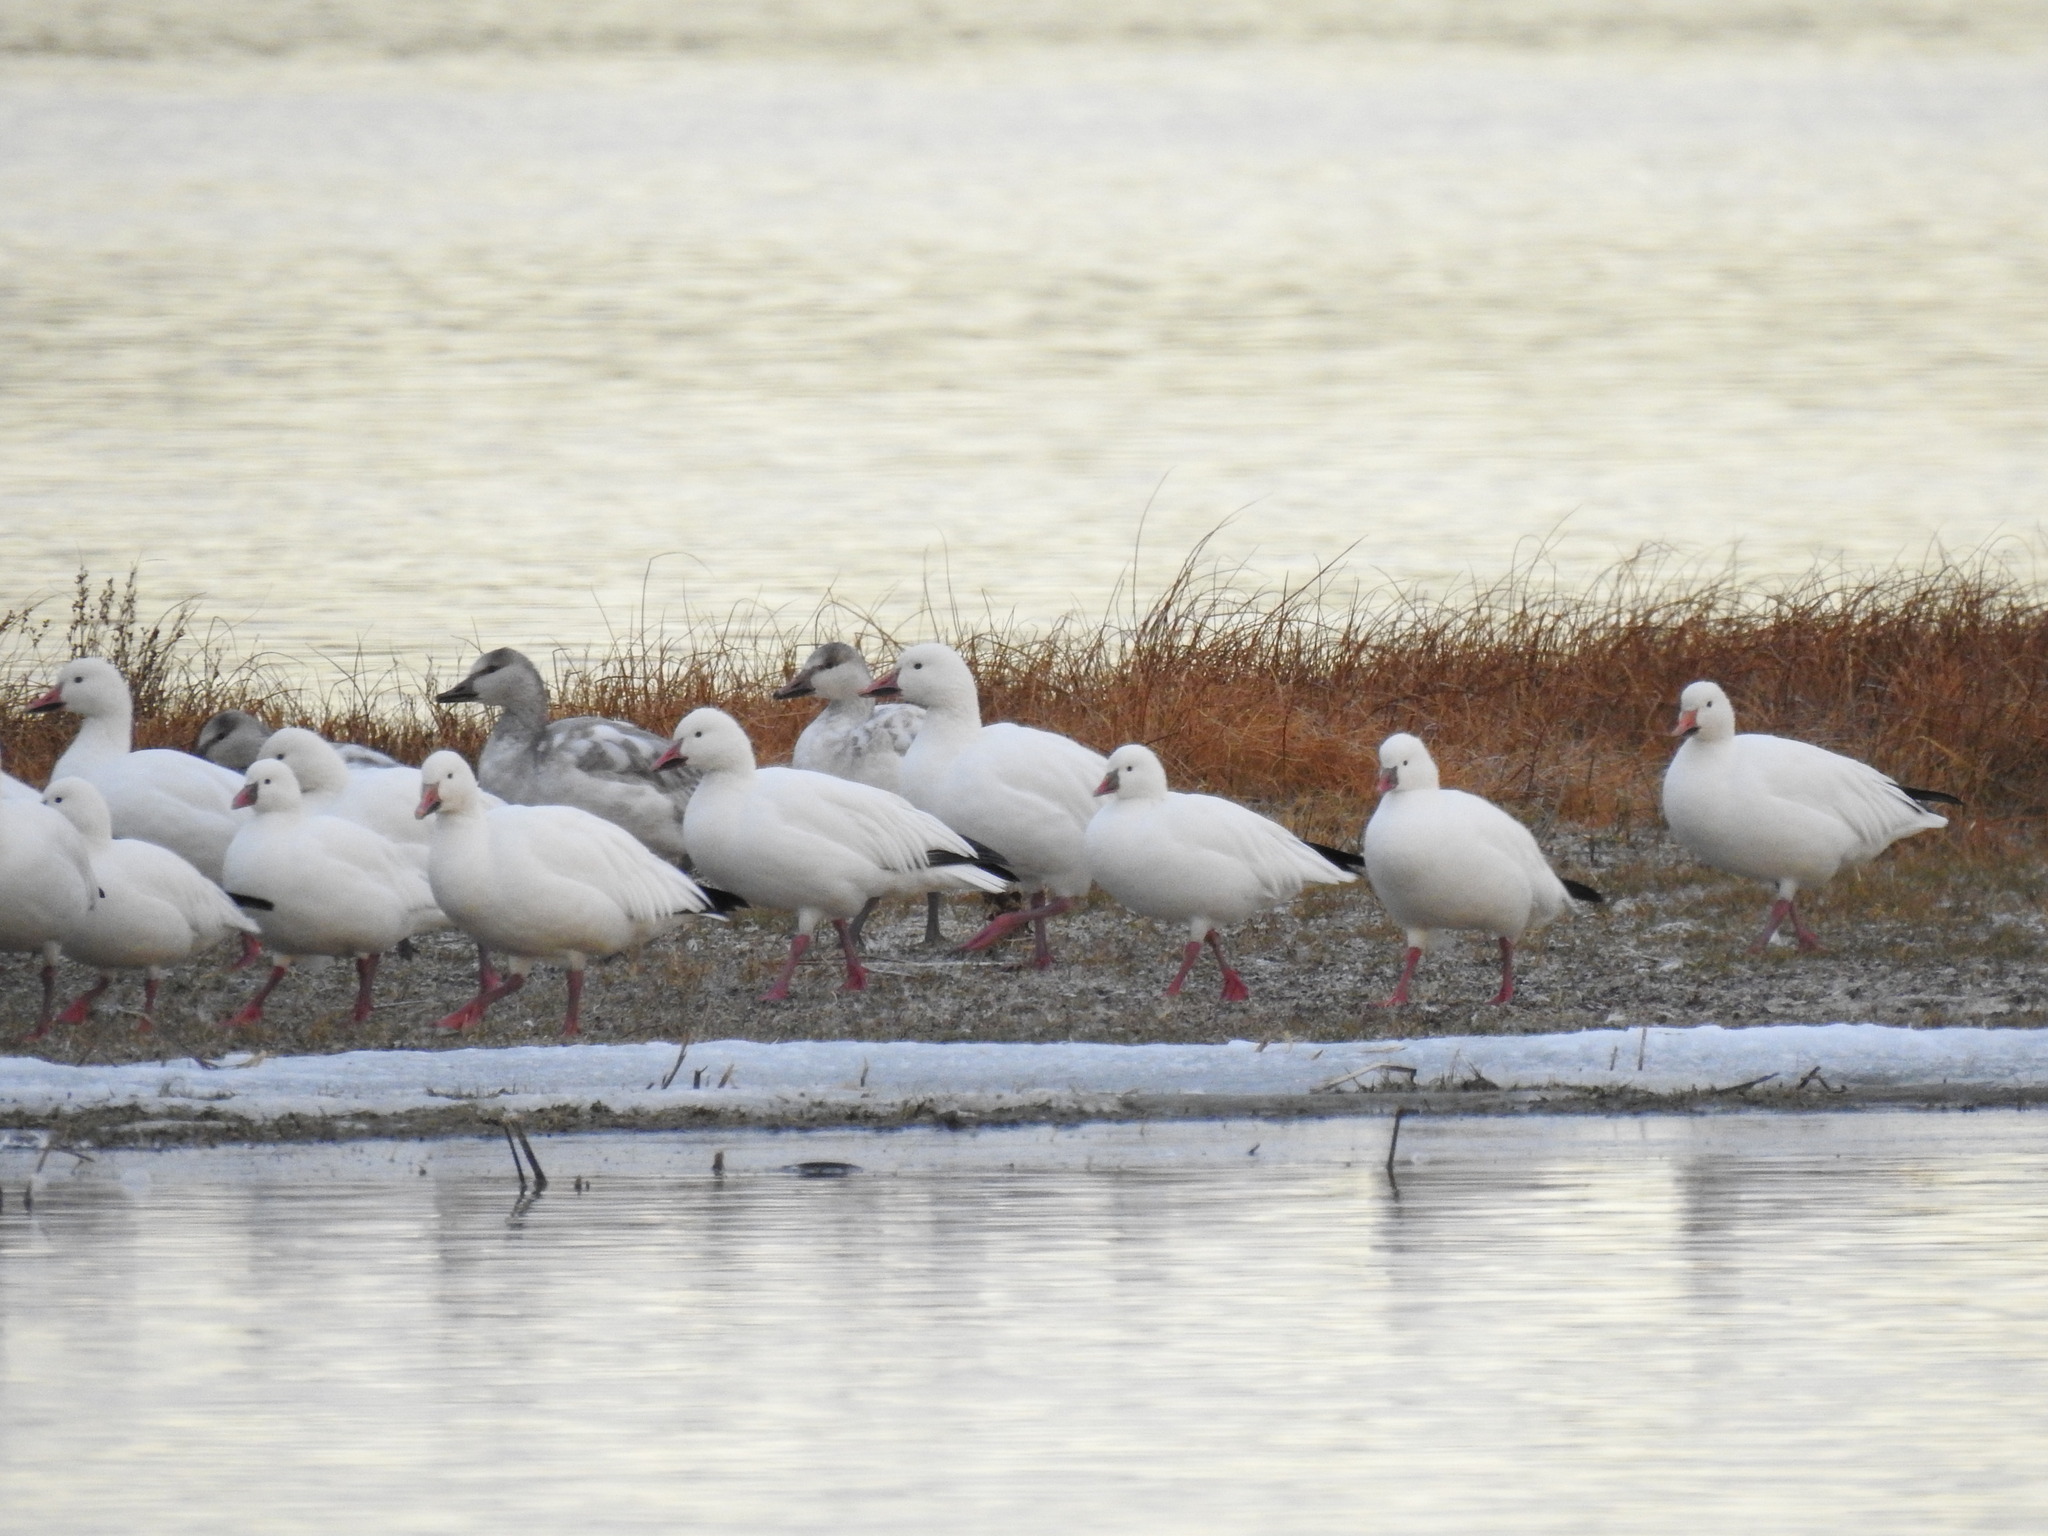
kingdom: Animalia
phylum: Chordata
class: Aves
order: Anseriformes
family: Anatidae
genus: Anser
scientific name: Anser rossii
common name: Ross's goose
